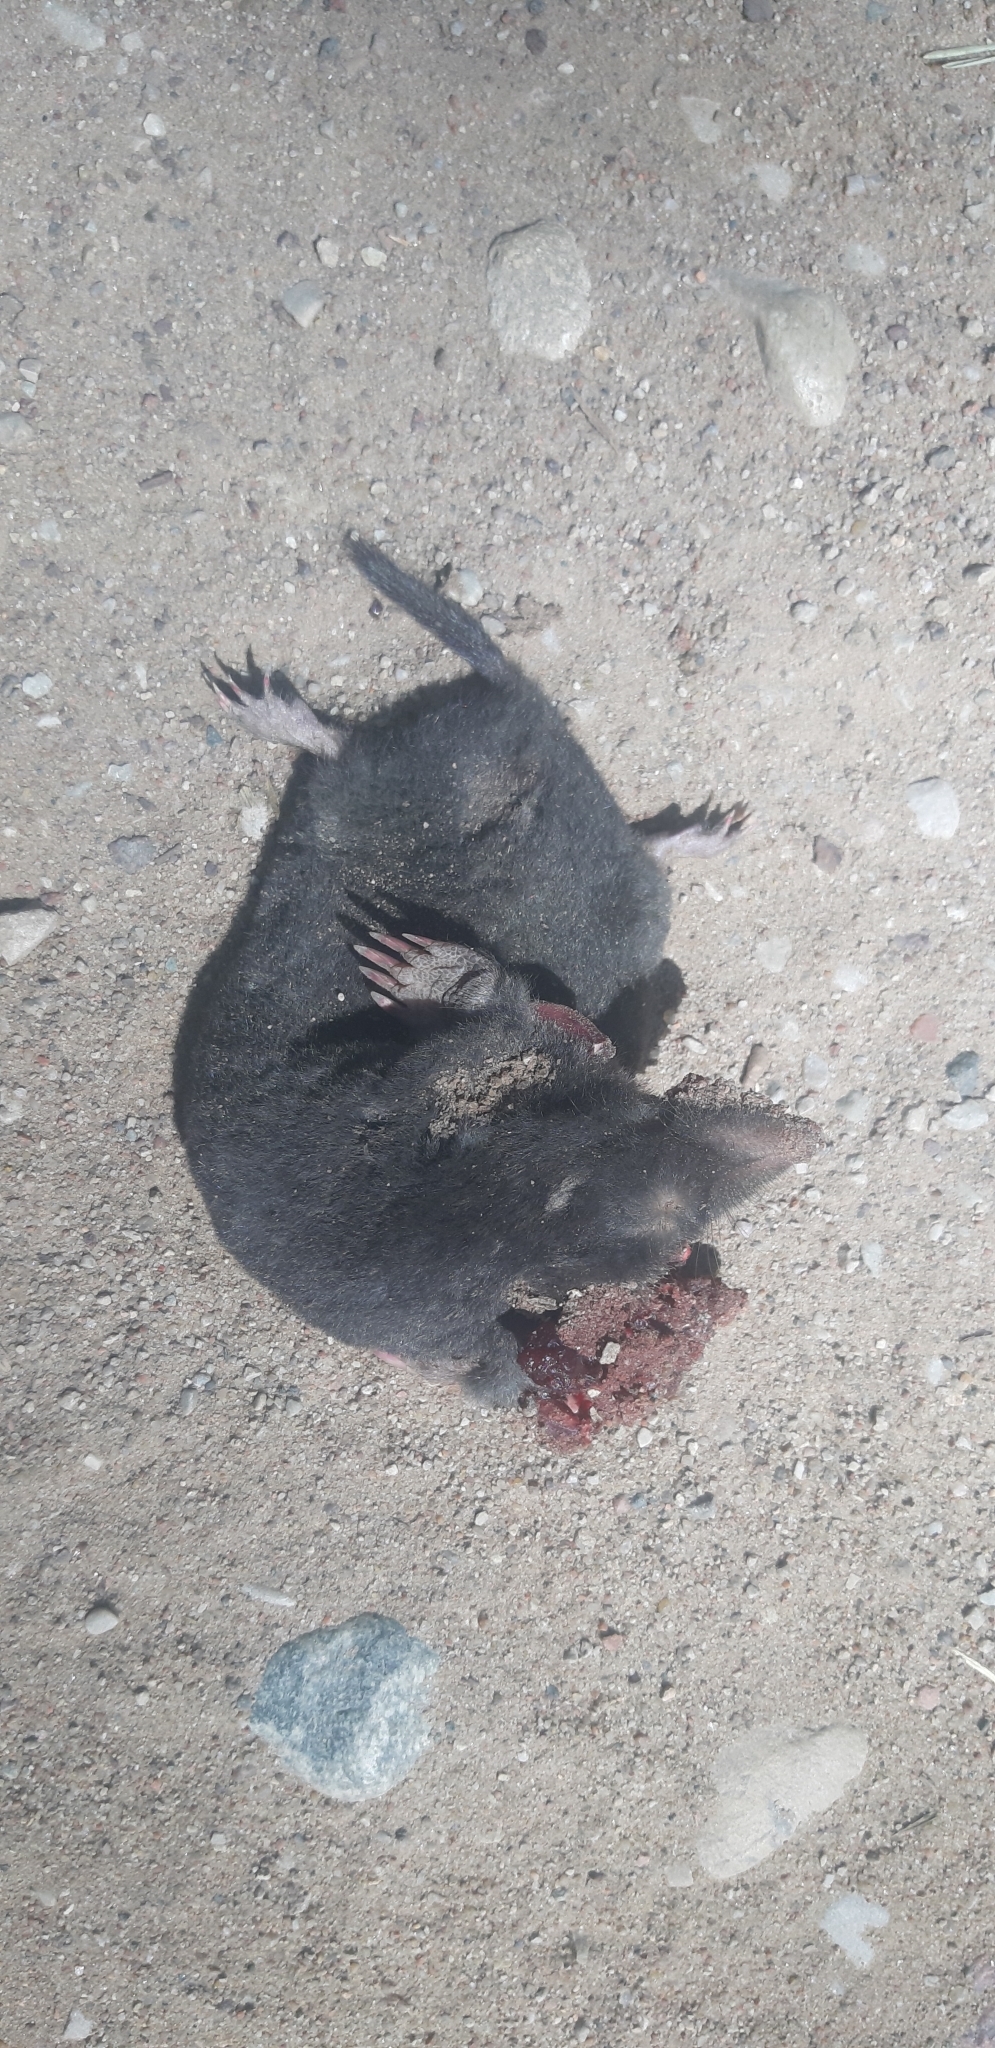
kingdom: Animalia
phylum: Chordata
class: Mammalia
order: Soricomorpha
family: Talpidae
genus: Talpa
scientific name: Talpa europaea
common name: European mole
